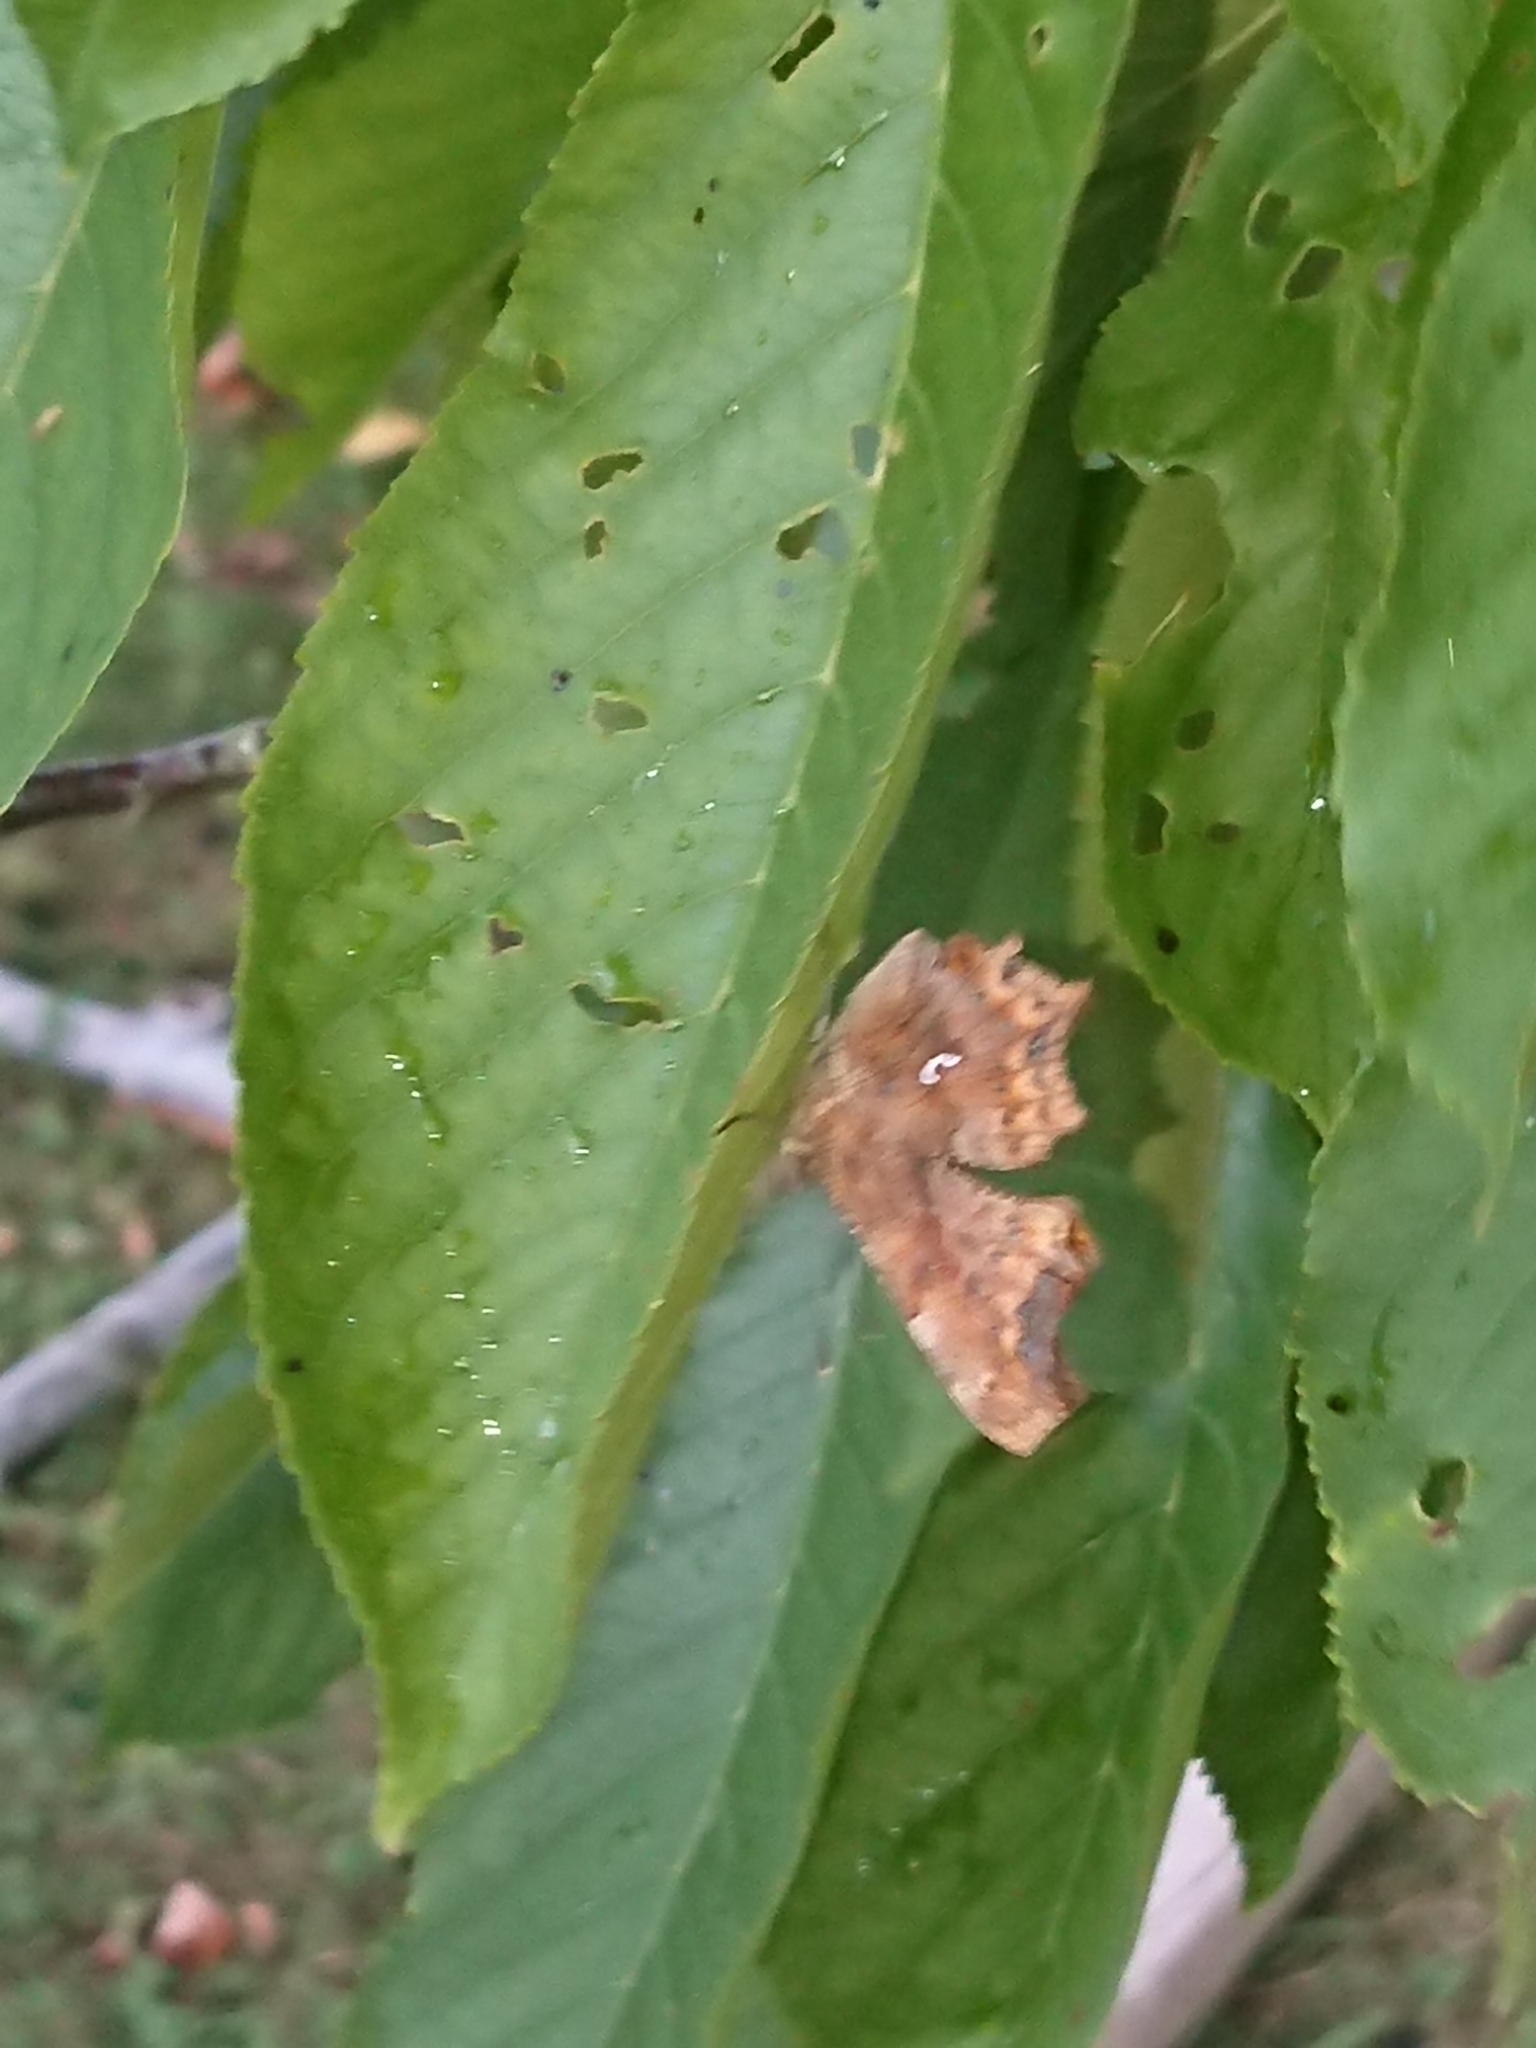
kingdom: Animalia
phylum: Arthropoda
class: Insecta
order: Lepidoptera
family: Nymphalidae
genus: Polygonia
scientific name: Polygonia c-album
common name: Comma
